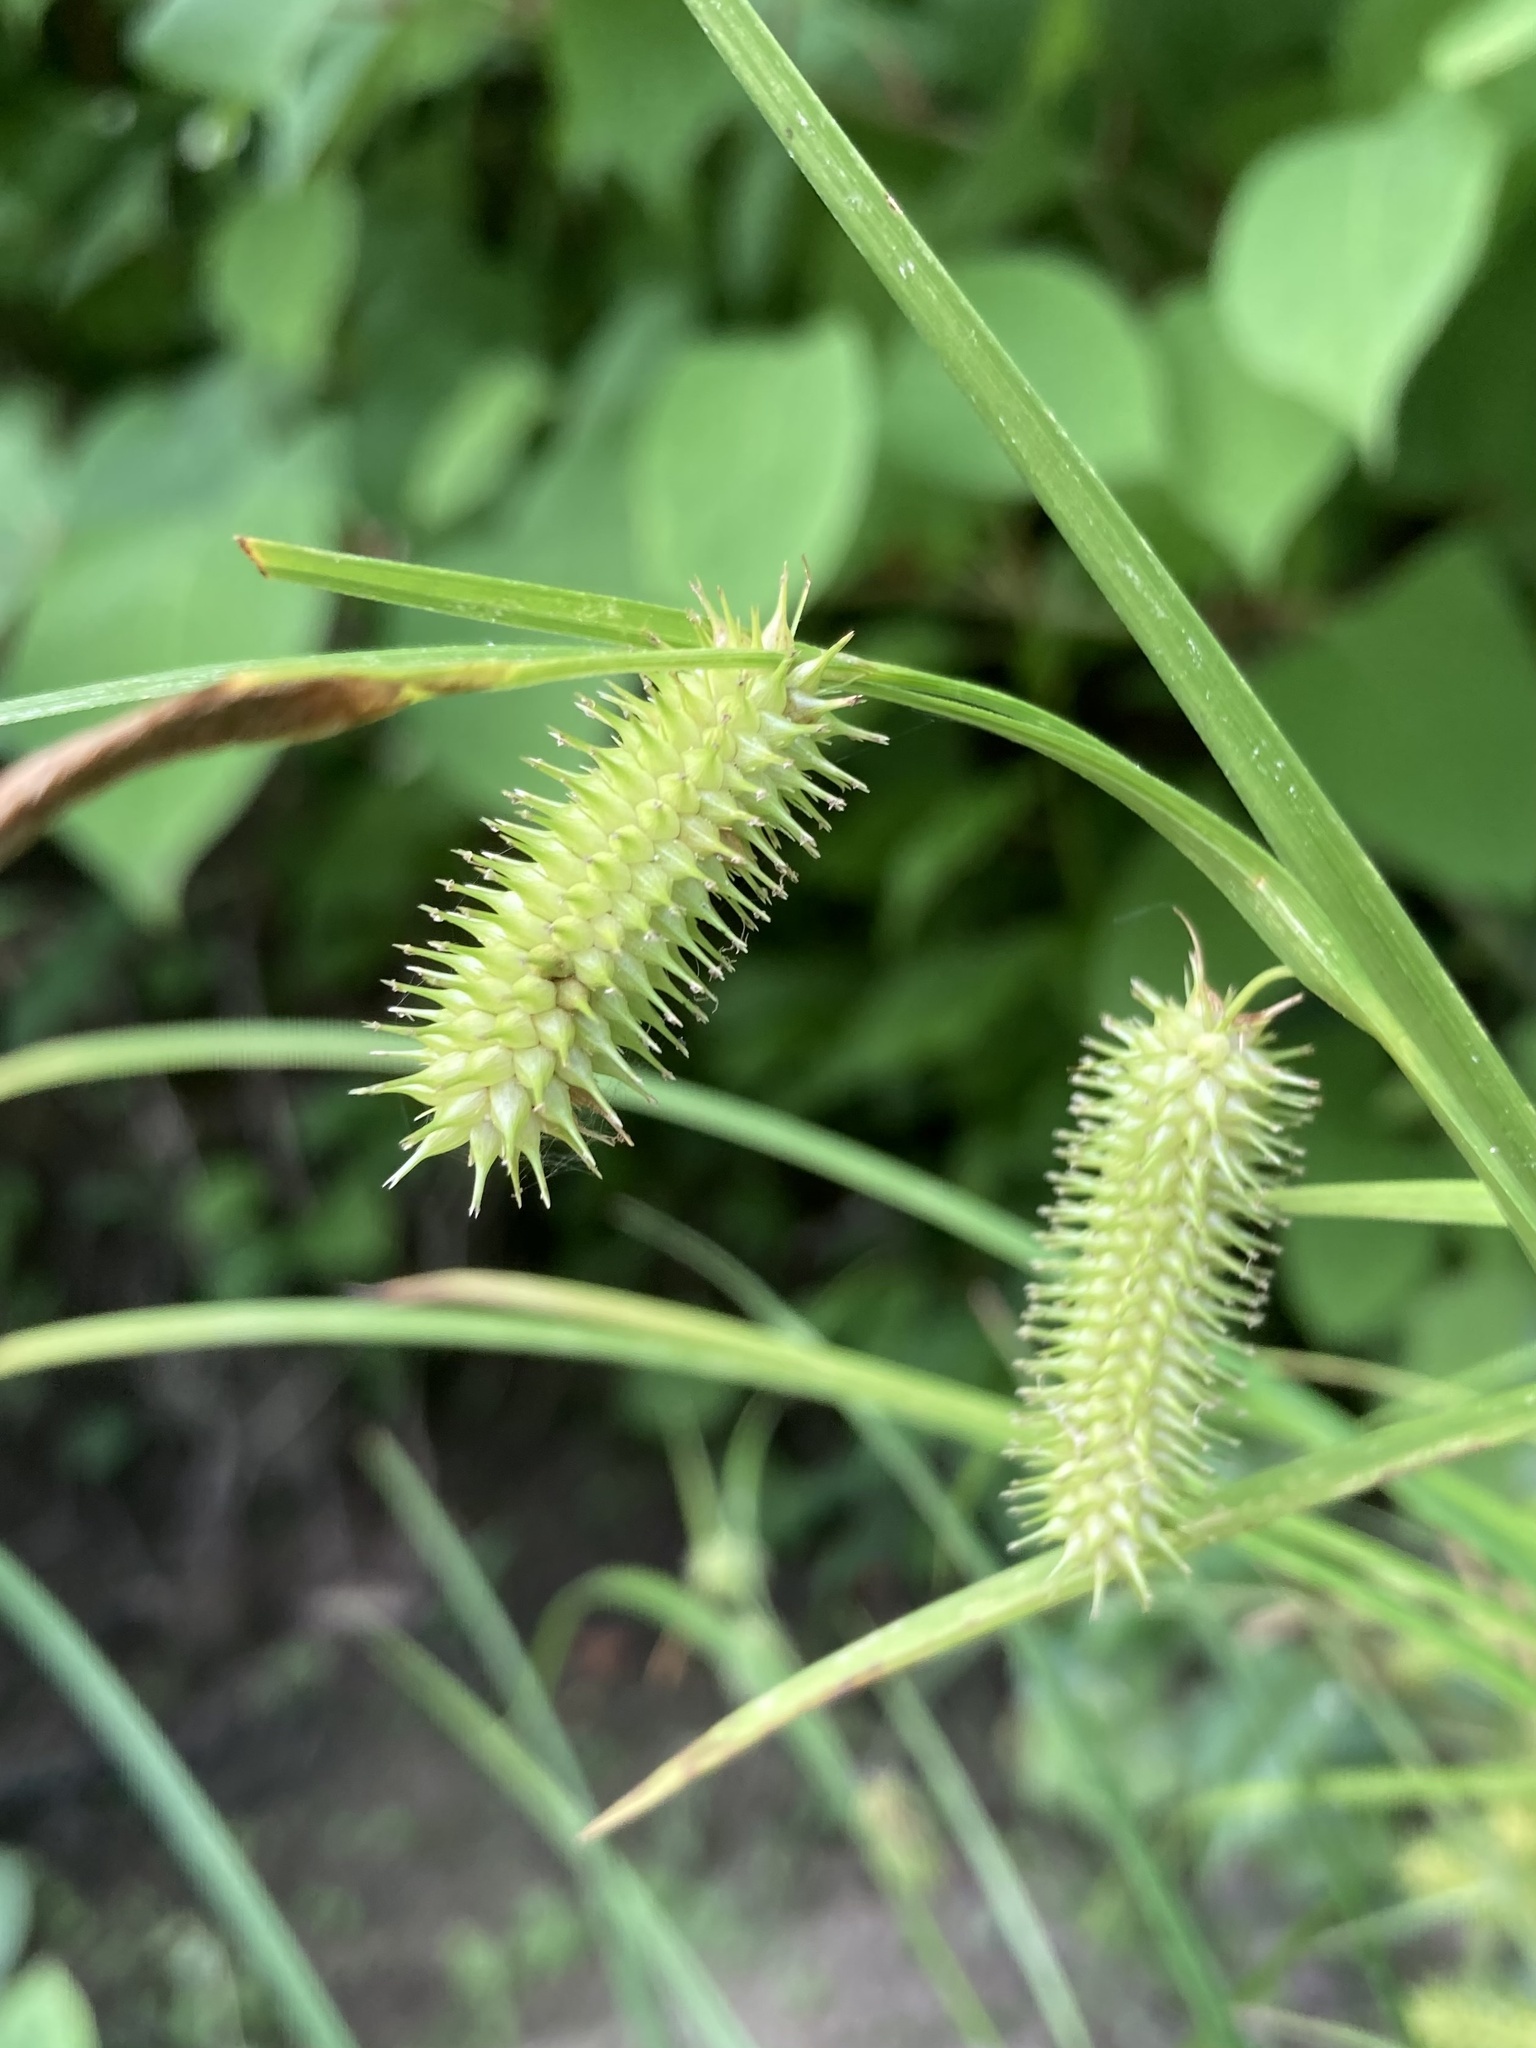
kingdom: Plantae
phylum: Tracheophyta
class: Liliopsida
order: Poales
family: Cyperaceae
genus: Carex
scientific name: Carex hystericina
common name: Bottlebrush sedge
